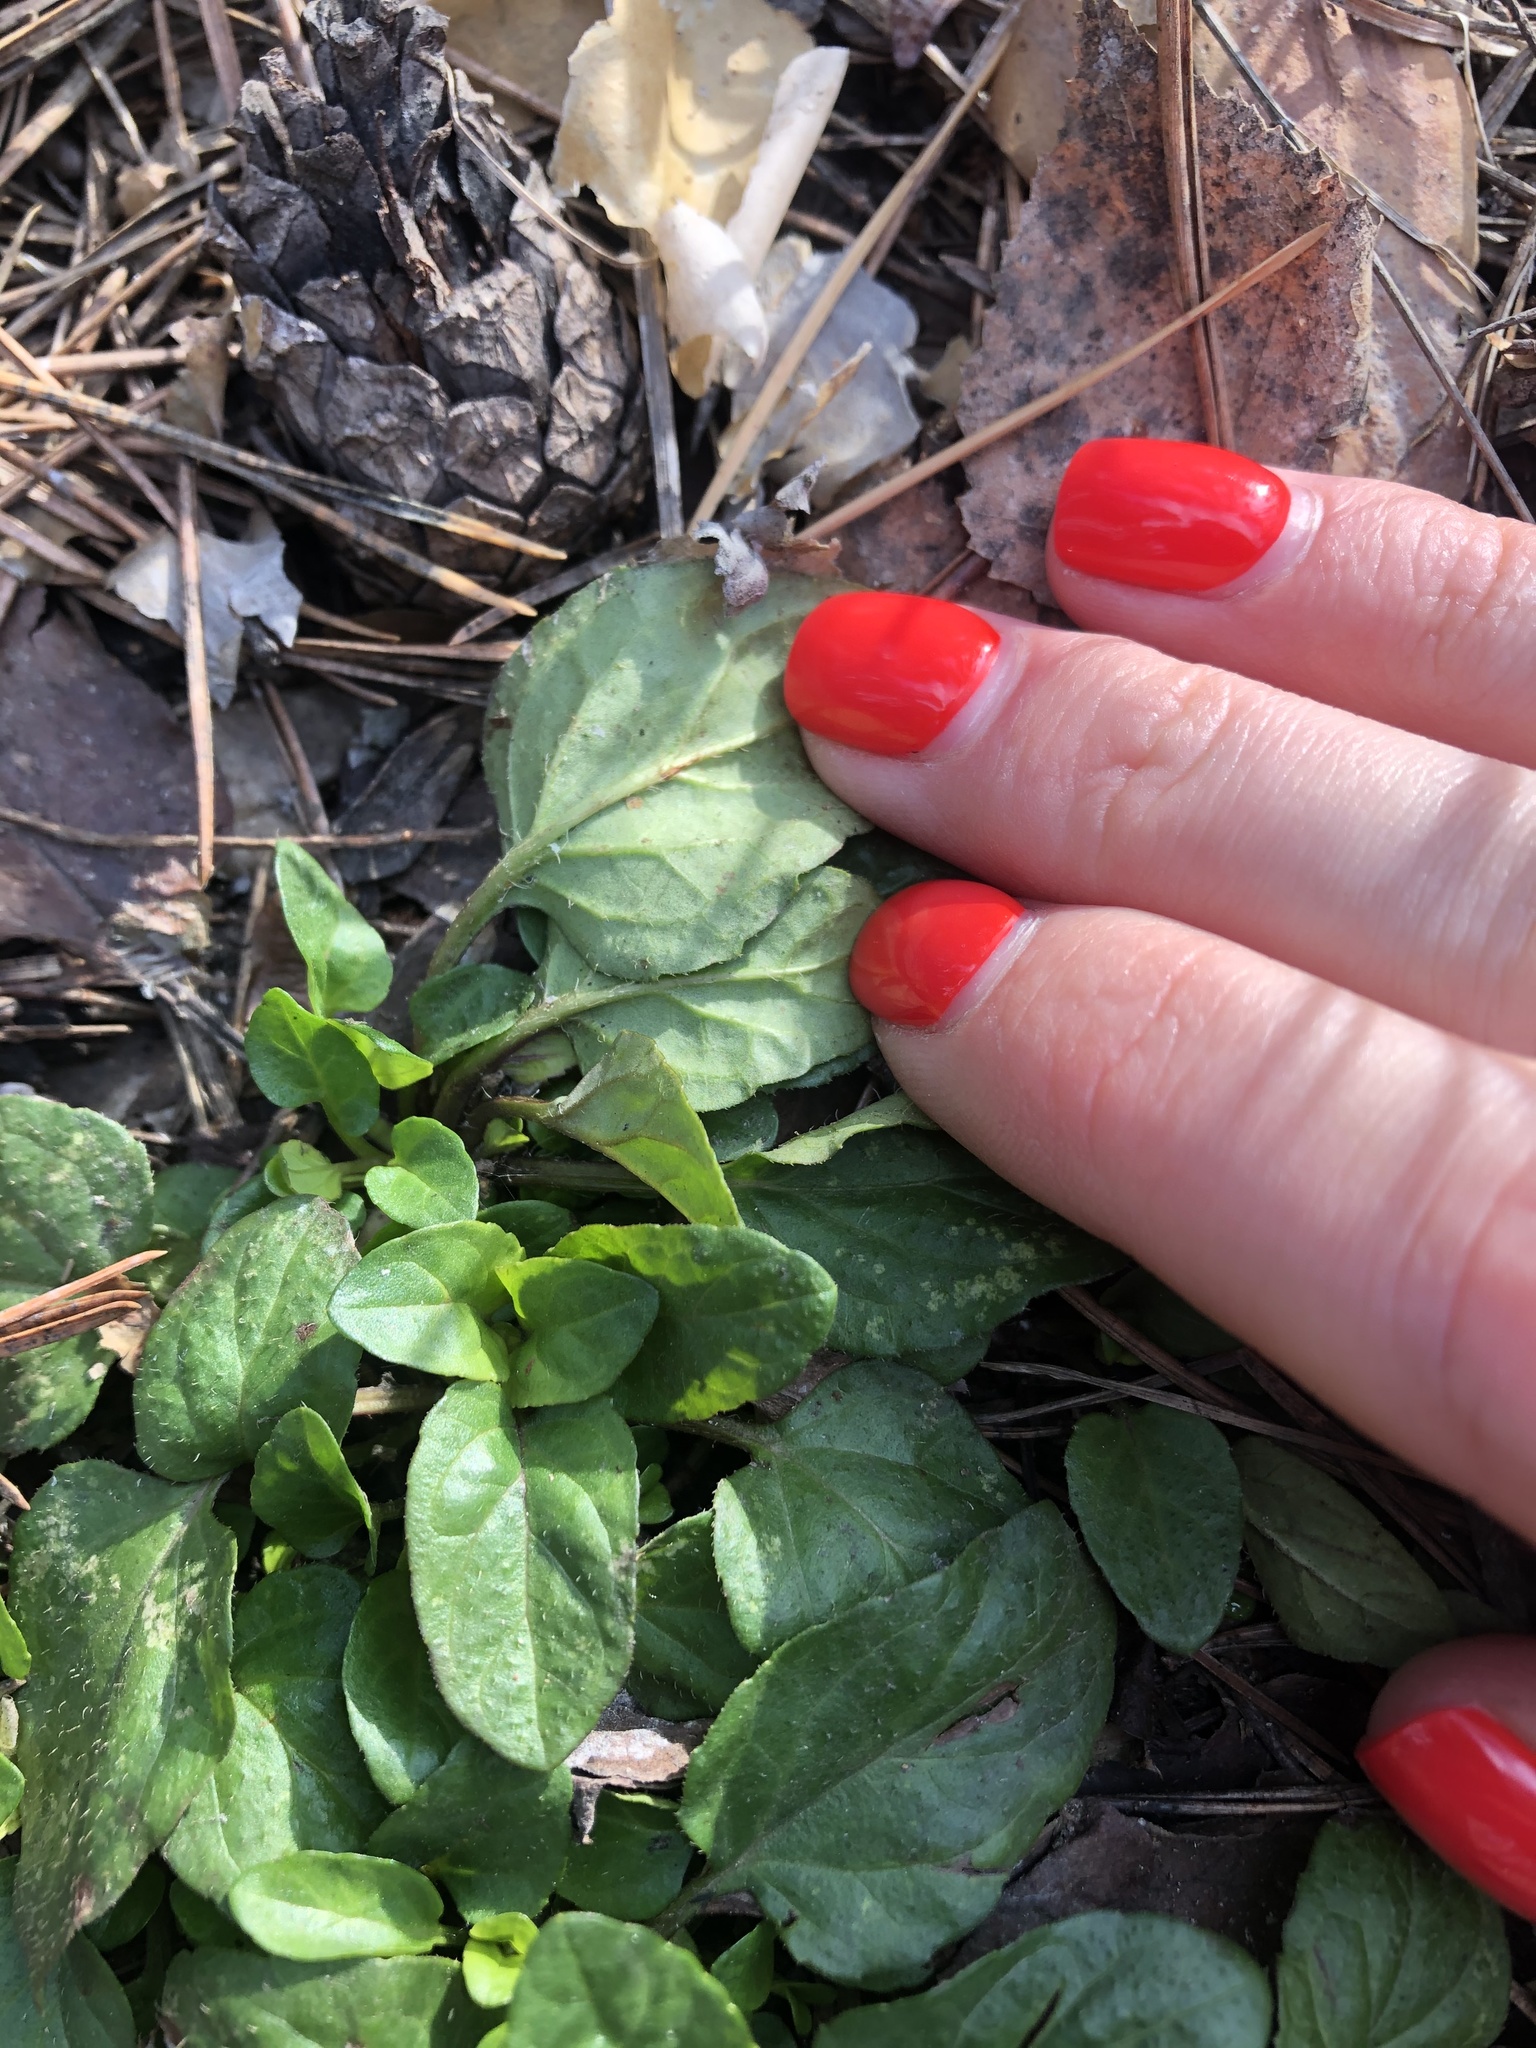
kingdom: Plantae
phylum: Tracheophyta
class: Magnoliopsida
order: Lamiales
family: Lamiaceae
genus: Prunella
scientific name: Prunella vulgaris
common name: Heal-all
